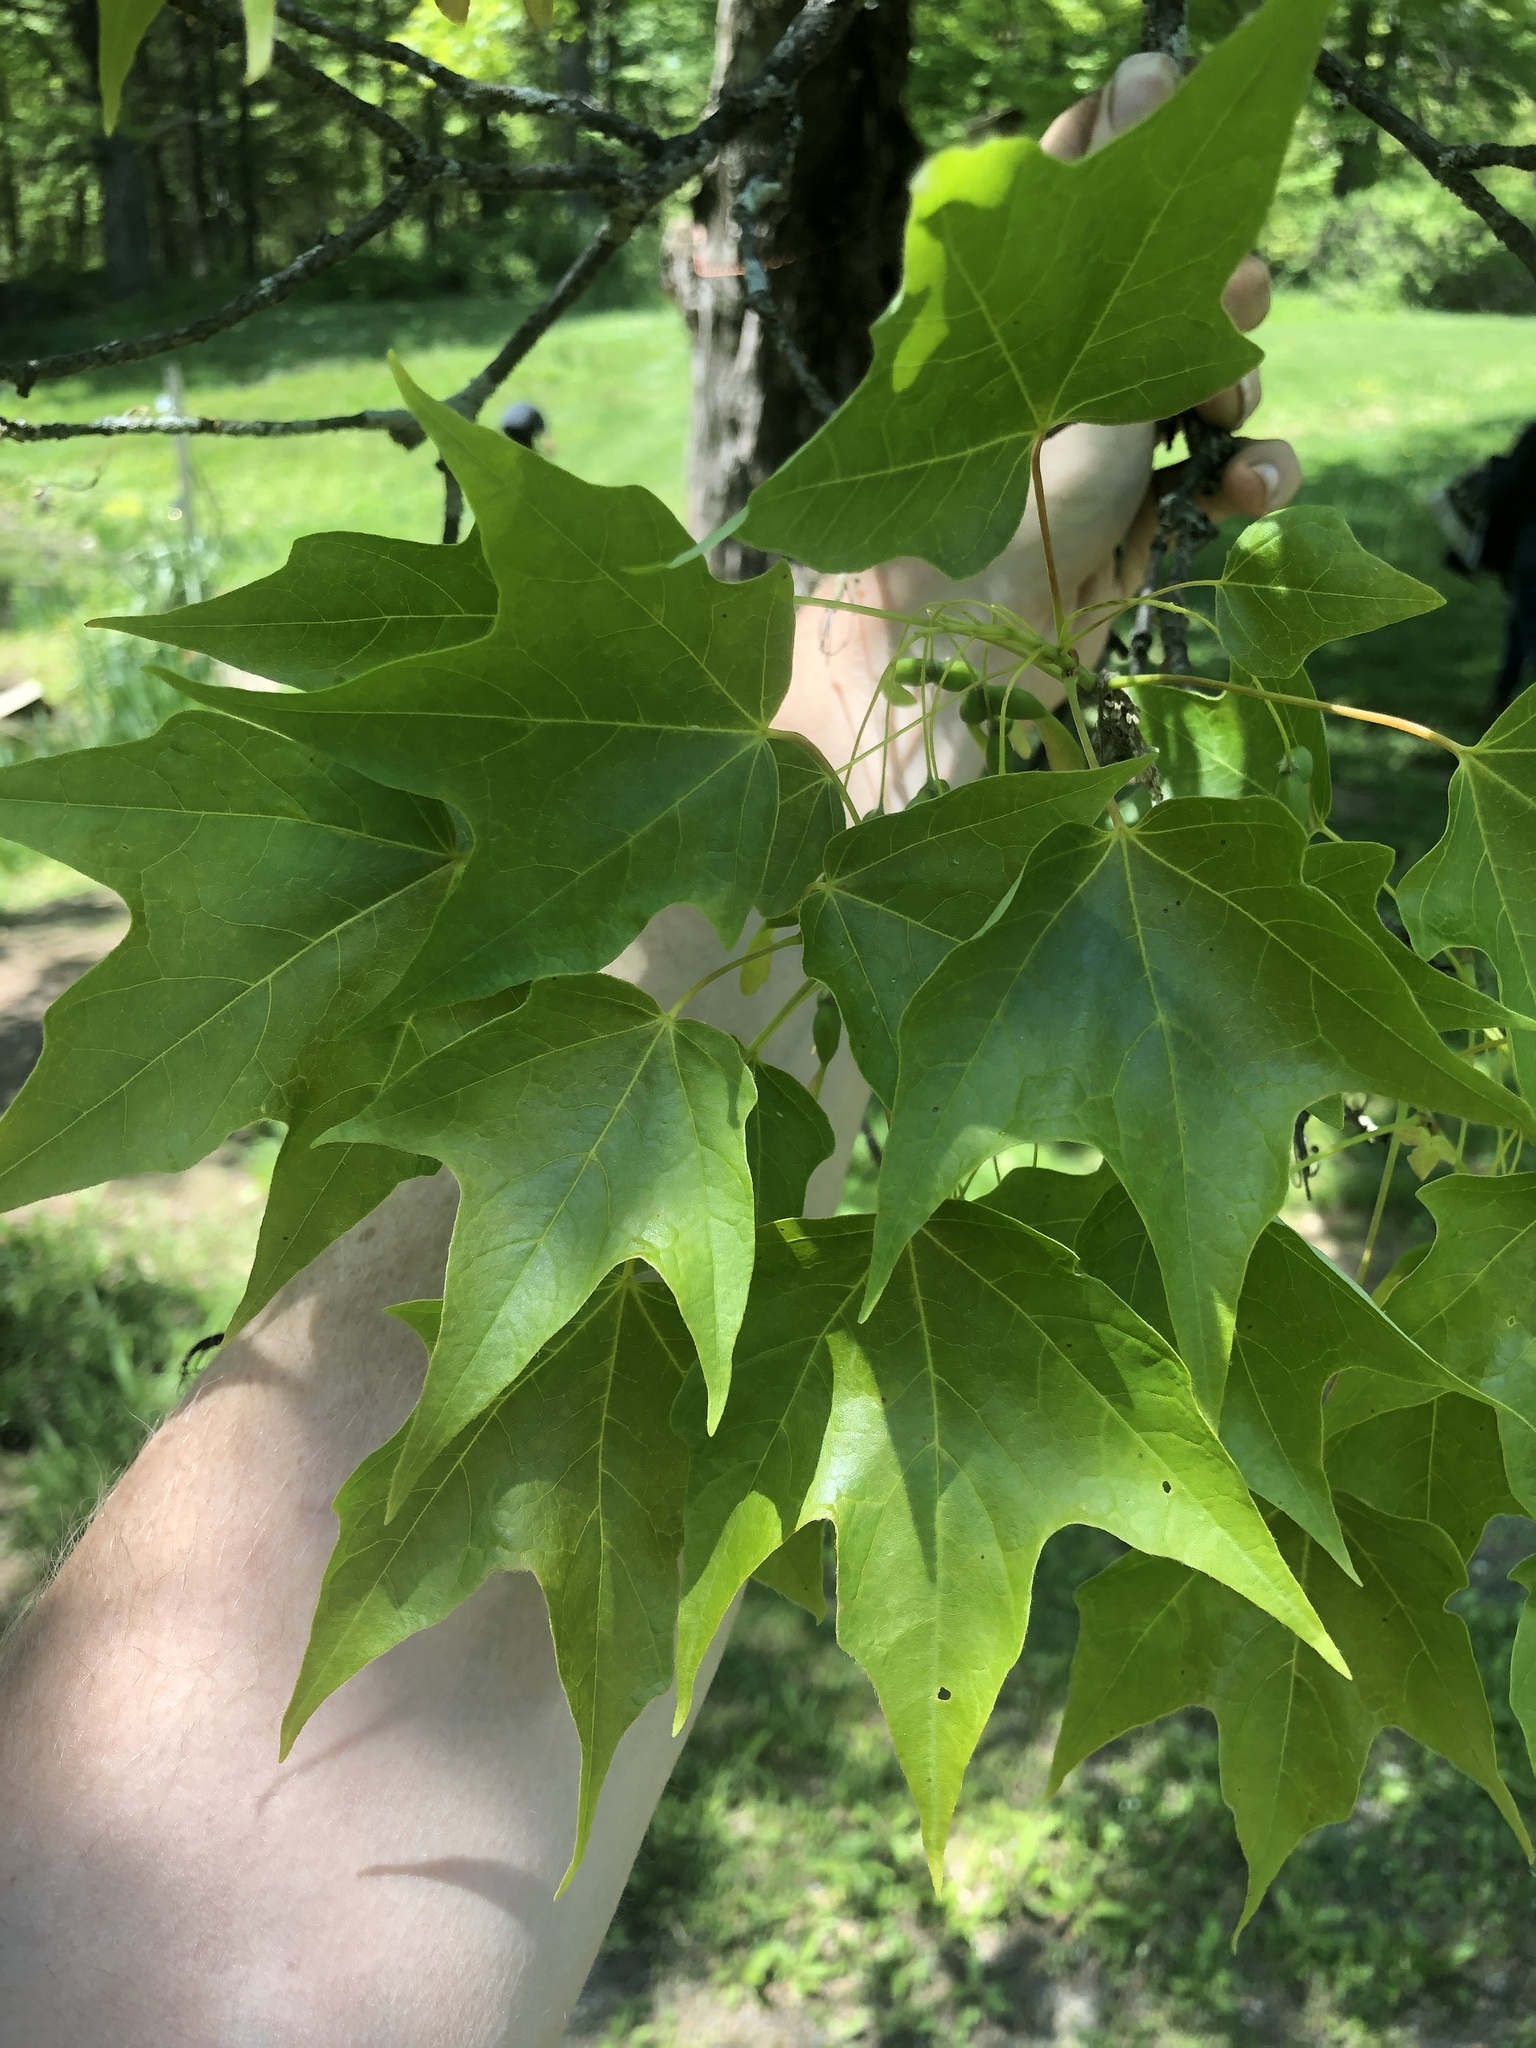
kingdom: Plantae
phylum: Tracheophyta
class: Magnoliopsida
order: Sapindales
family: Sapindaceae
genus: Acer
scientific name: Acer saccharum
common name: Sugar maple
